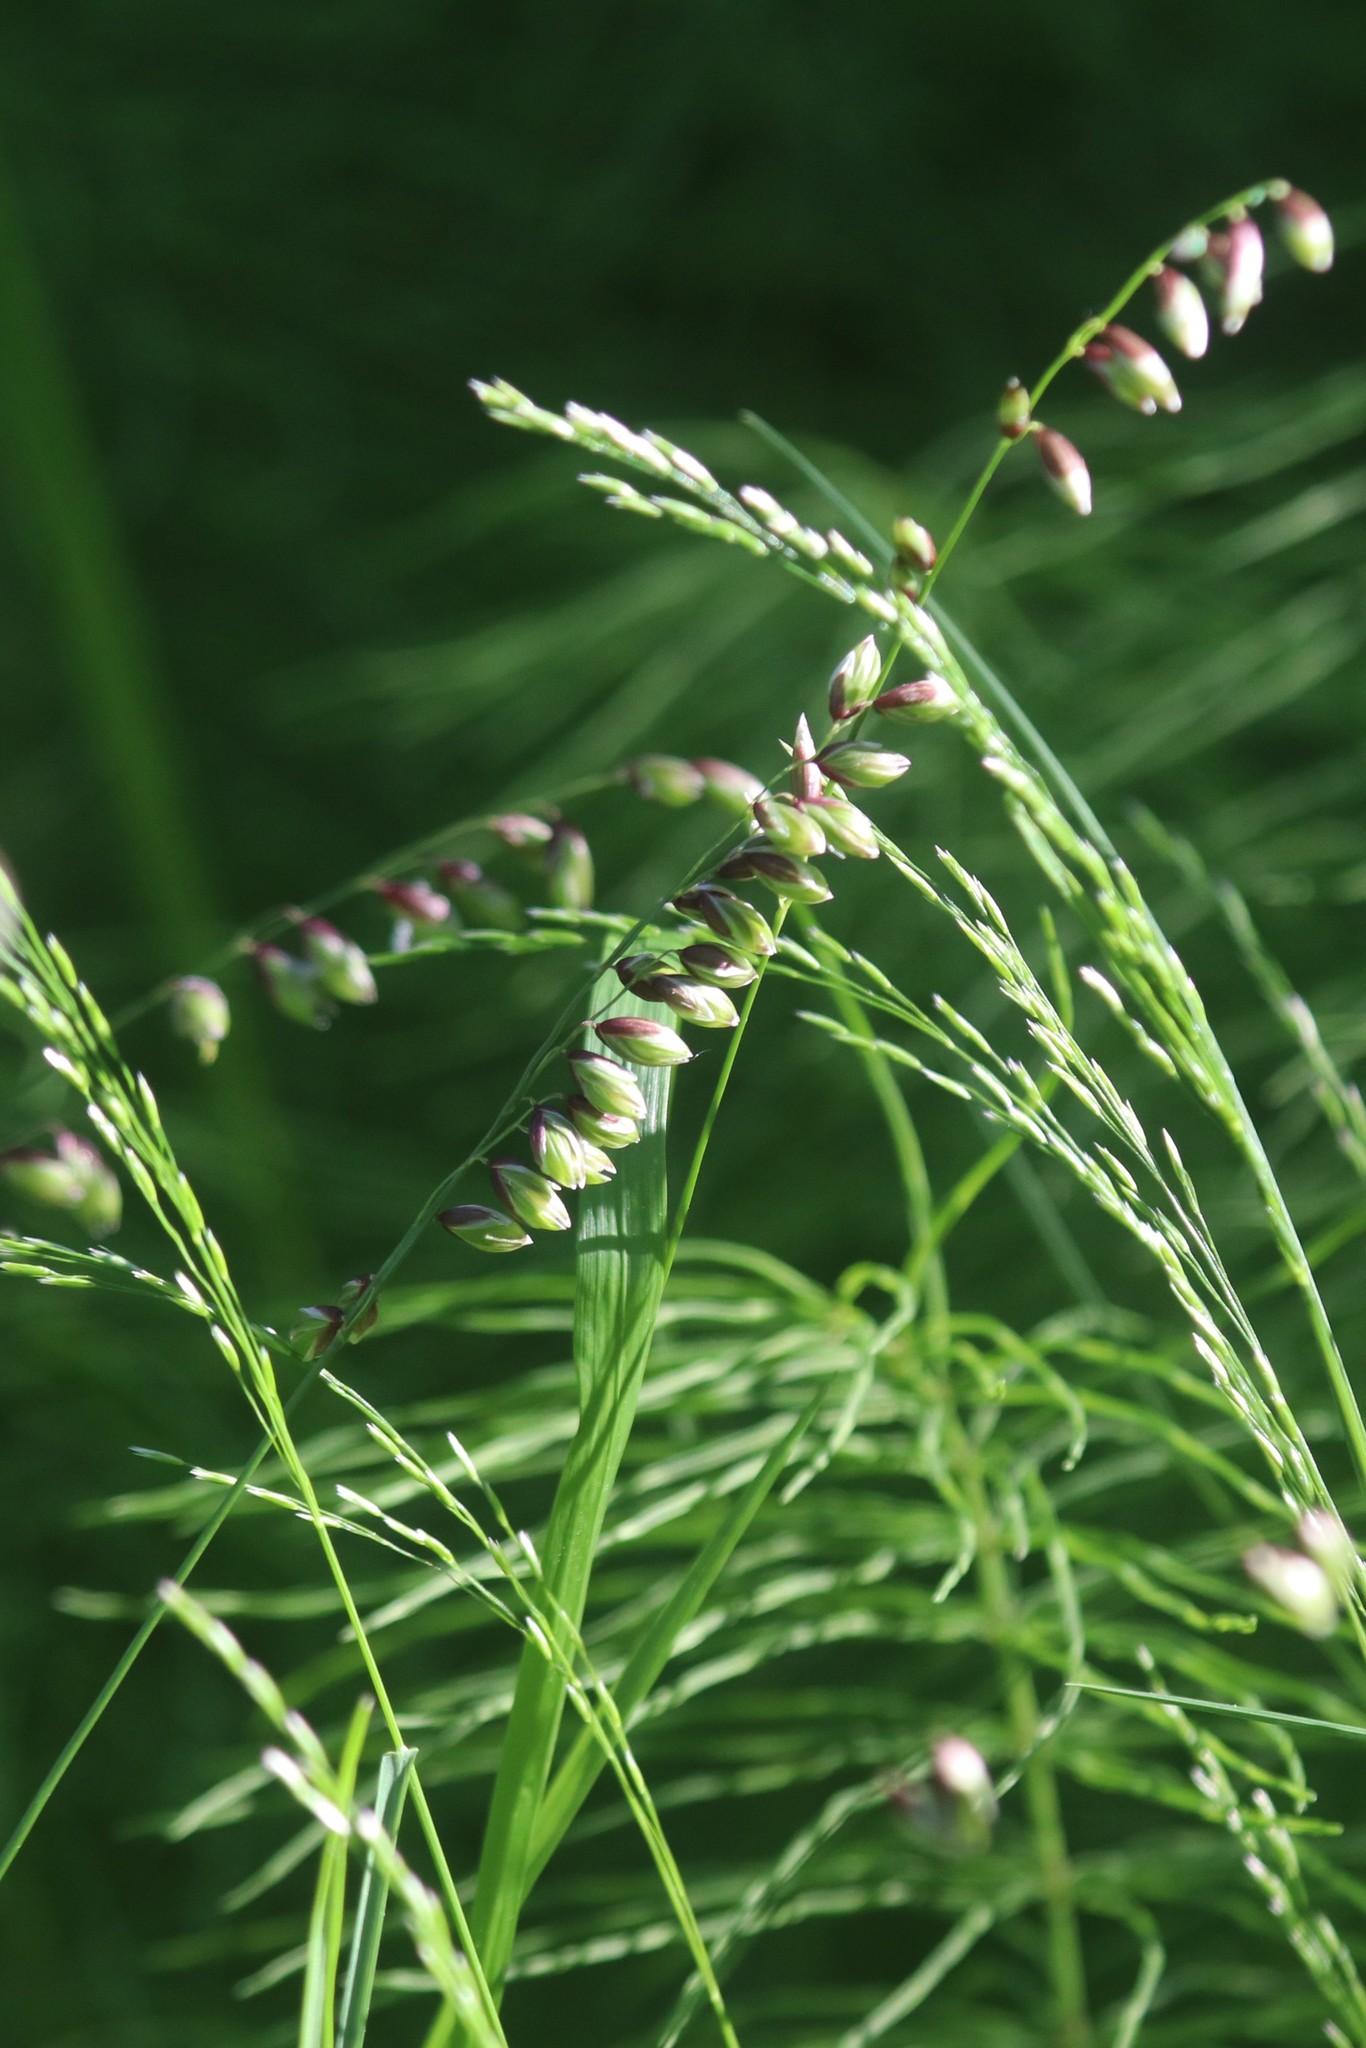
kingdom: Plantae
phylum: Tracheophyta
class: Liliopsida
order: Poales
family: Poaceae
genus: Melica
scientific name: Melica nutans
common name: Mountain melick
